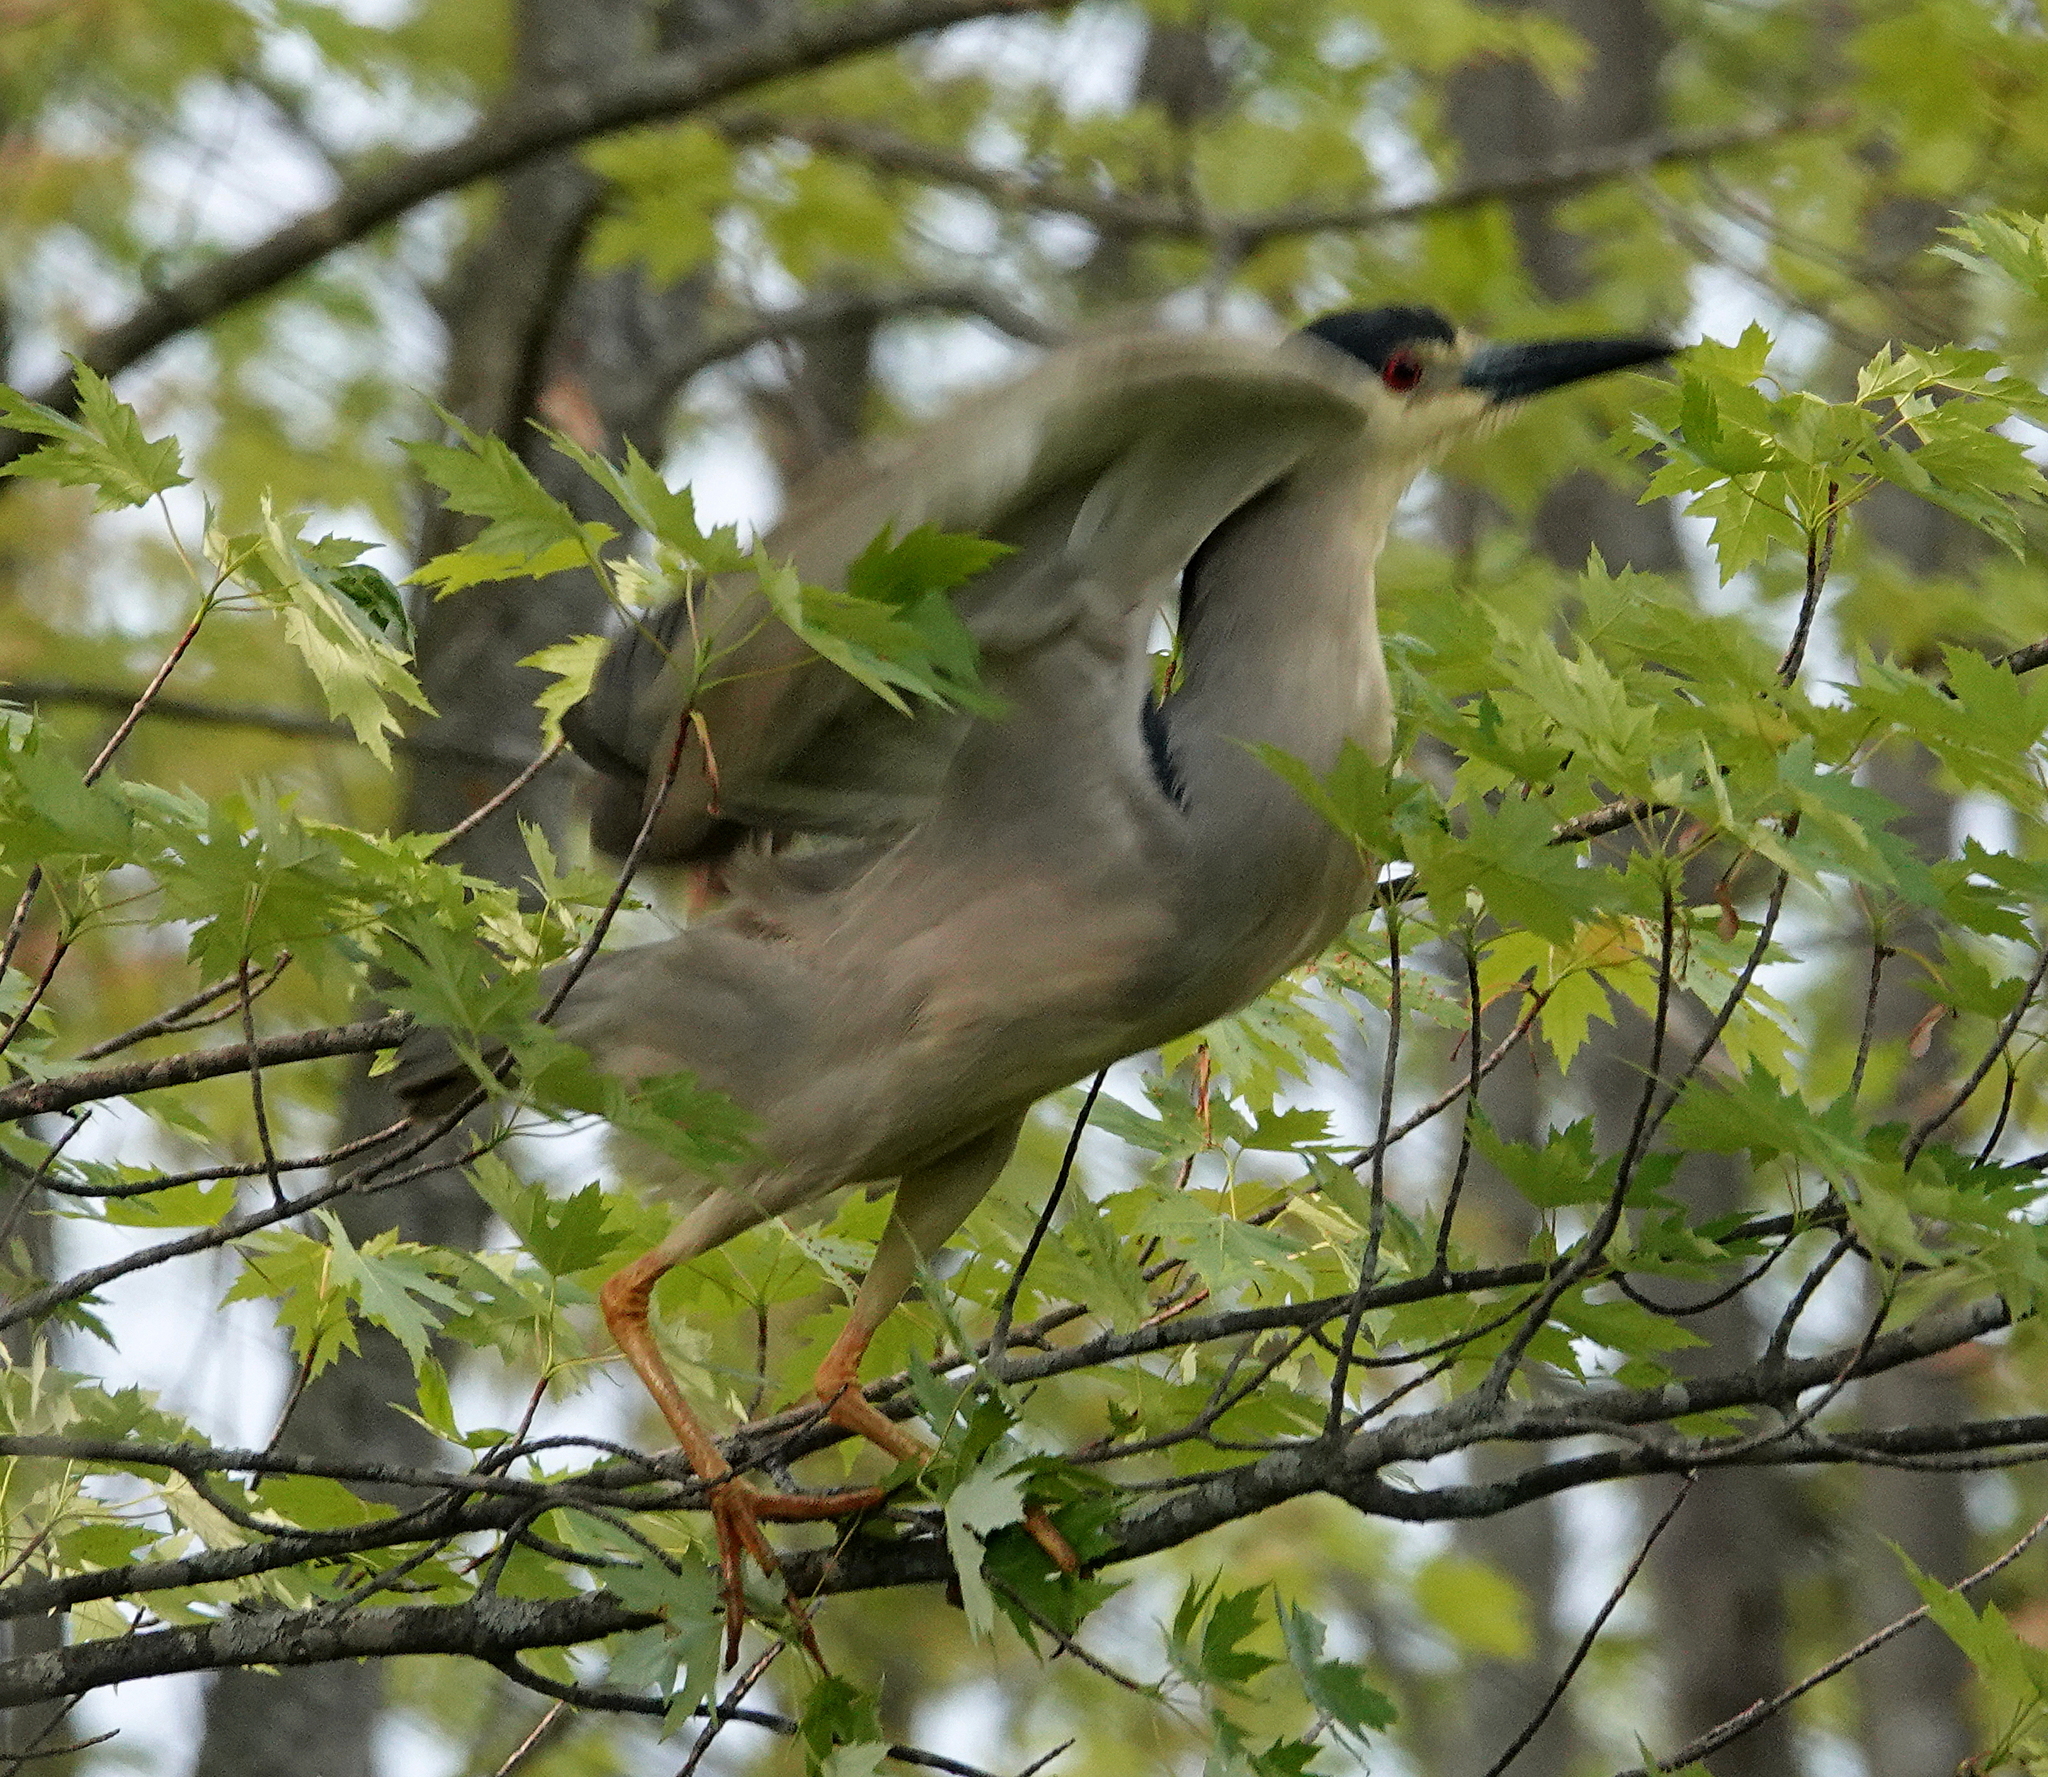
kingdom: Animalia
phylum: Chordata
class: Aves
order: Pelecaniformes
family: Ardeidae
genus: Nycticorax
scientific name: Nycticorax nycticorax
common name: Black-crowned night heron
